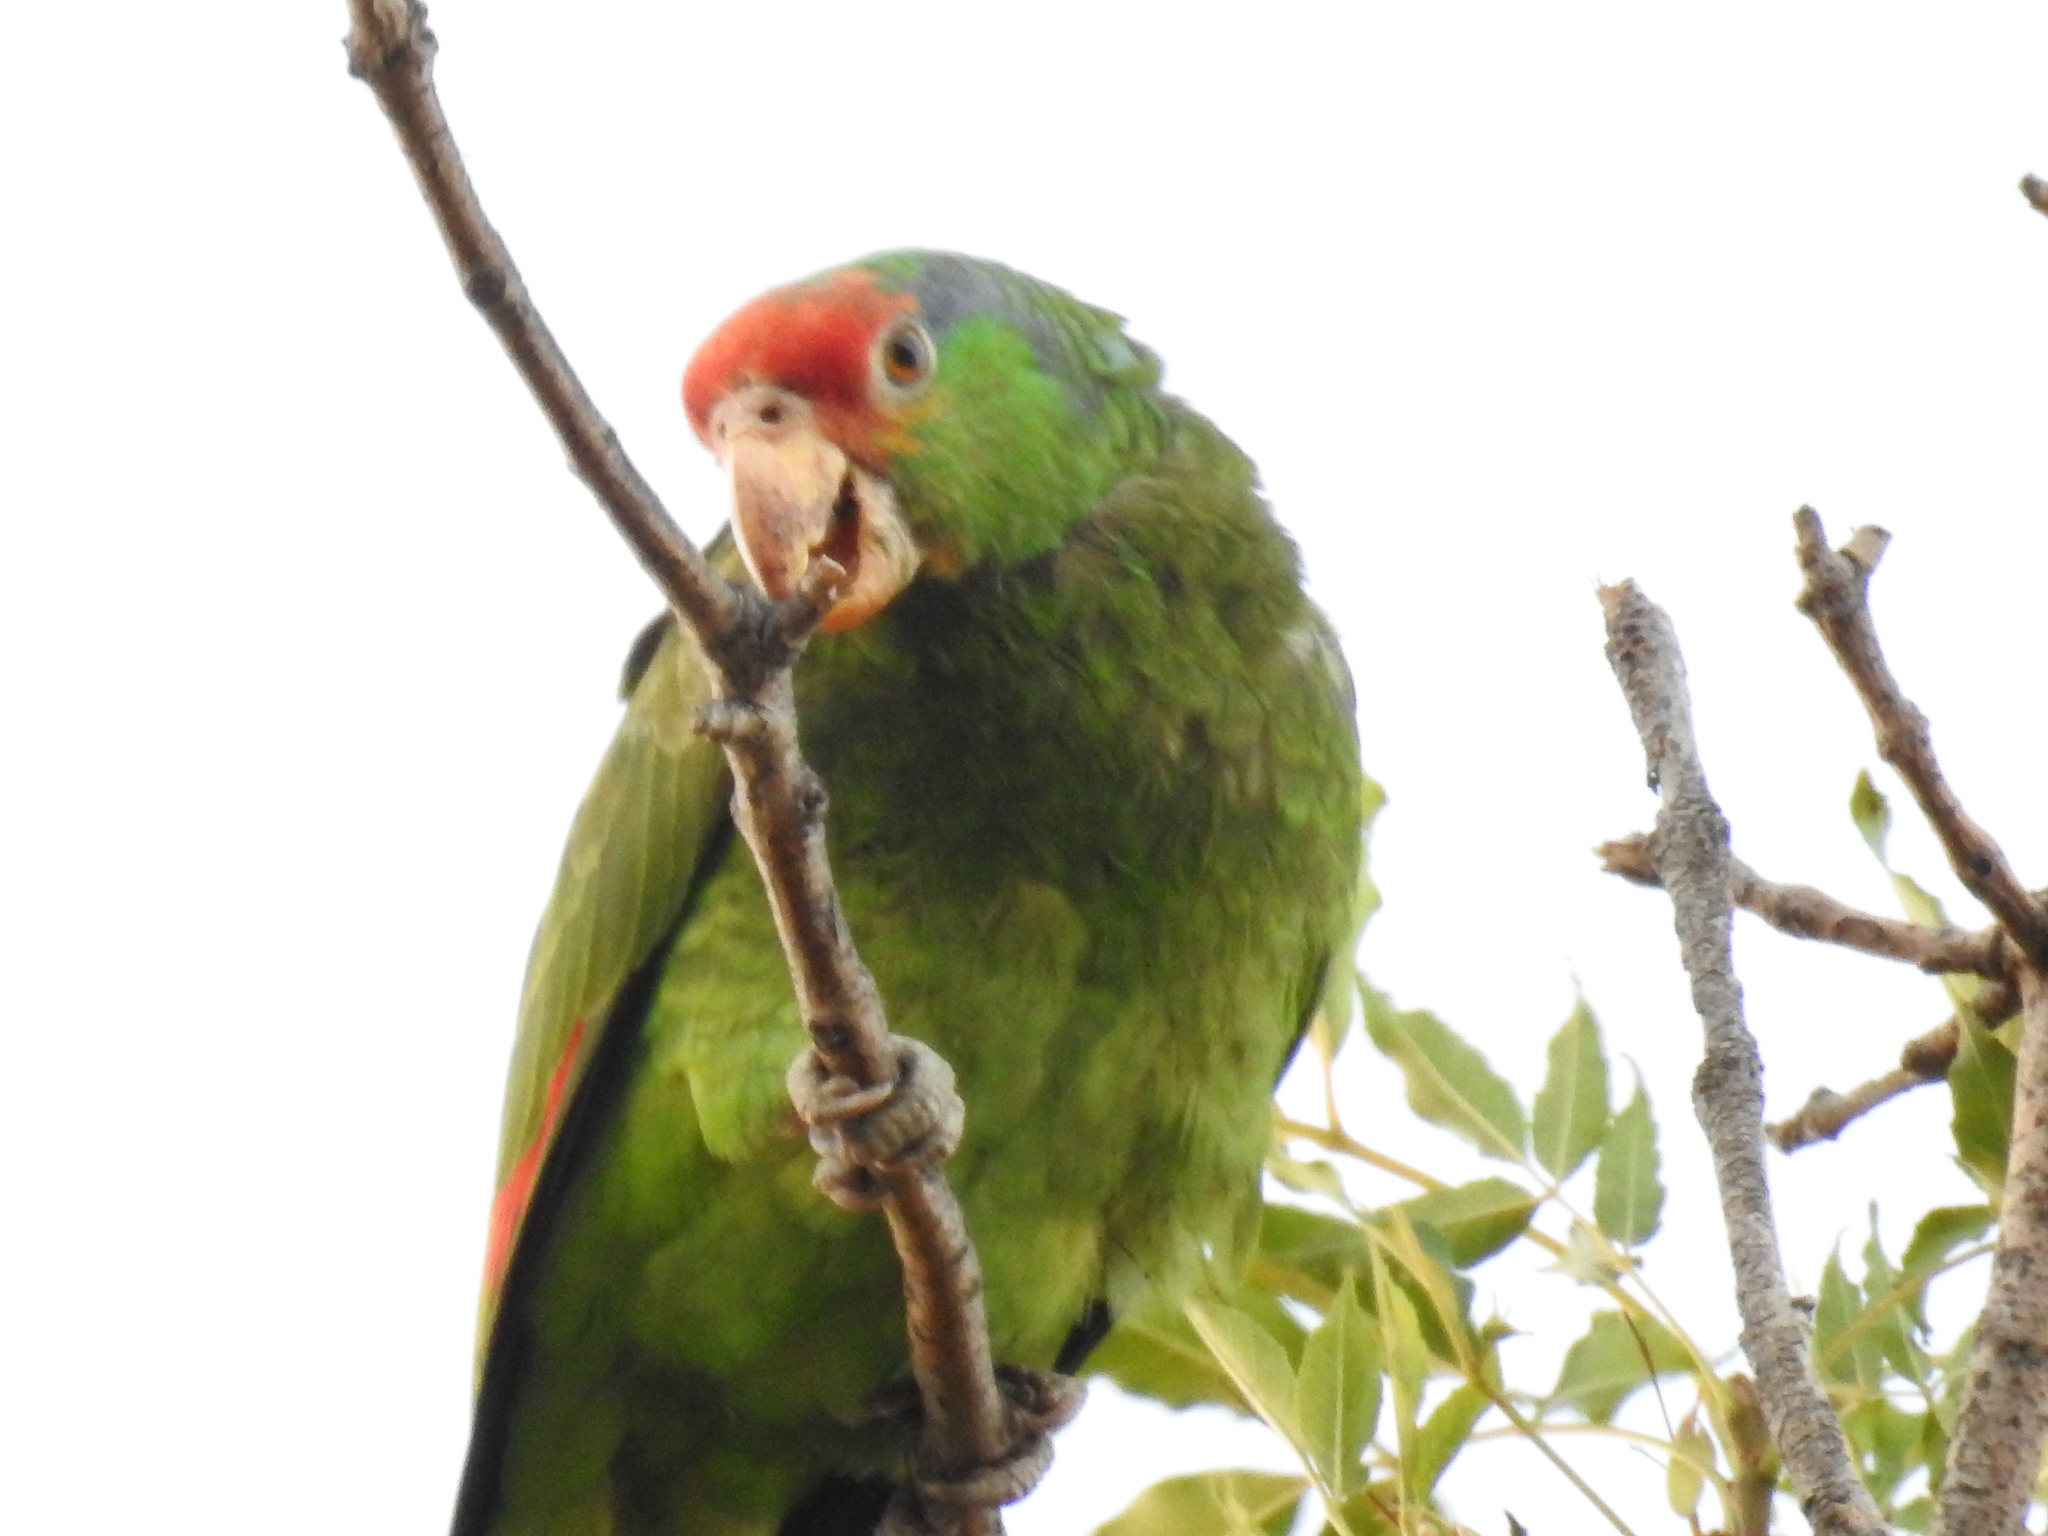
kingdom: Animalia
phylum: Chordata
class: Aves
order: Psittaciformes
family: Psittacidae
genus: Amazona
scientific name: Amazona viridigenalis
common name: Red-crowned amazon
